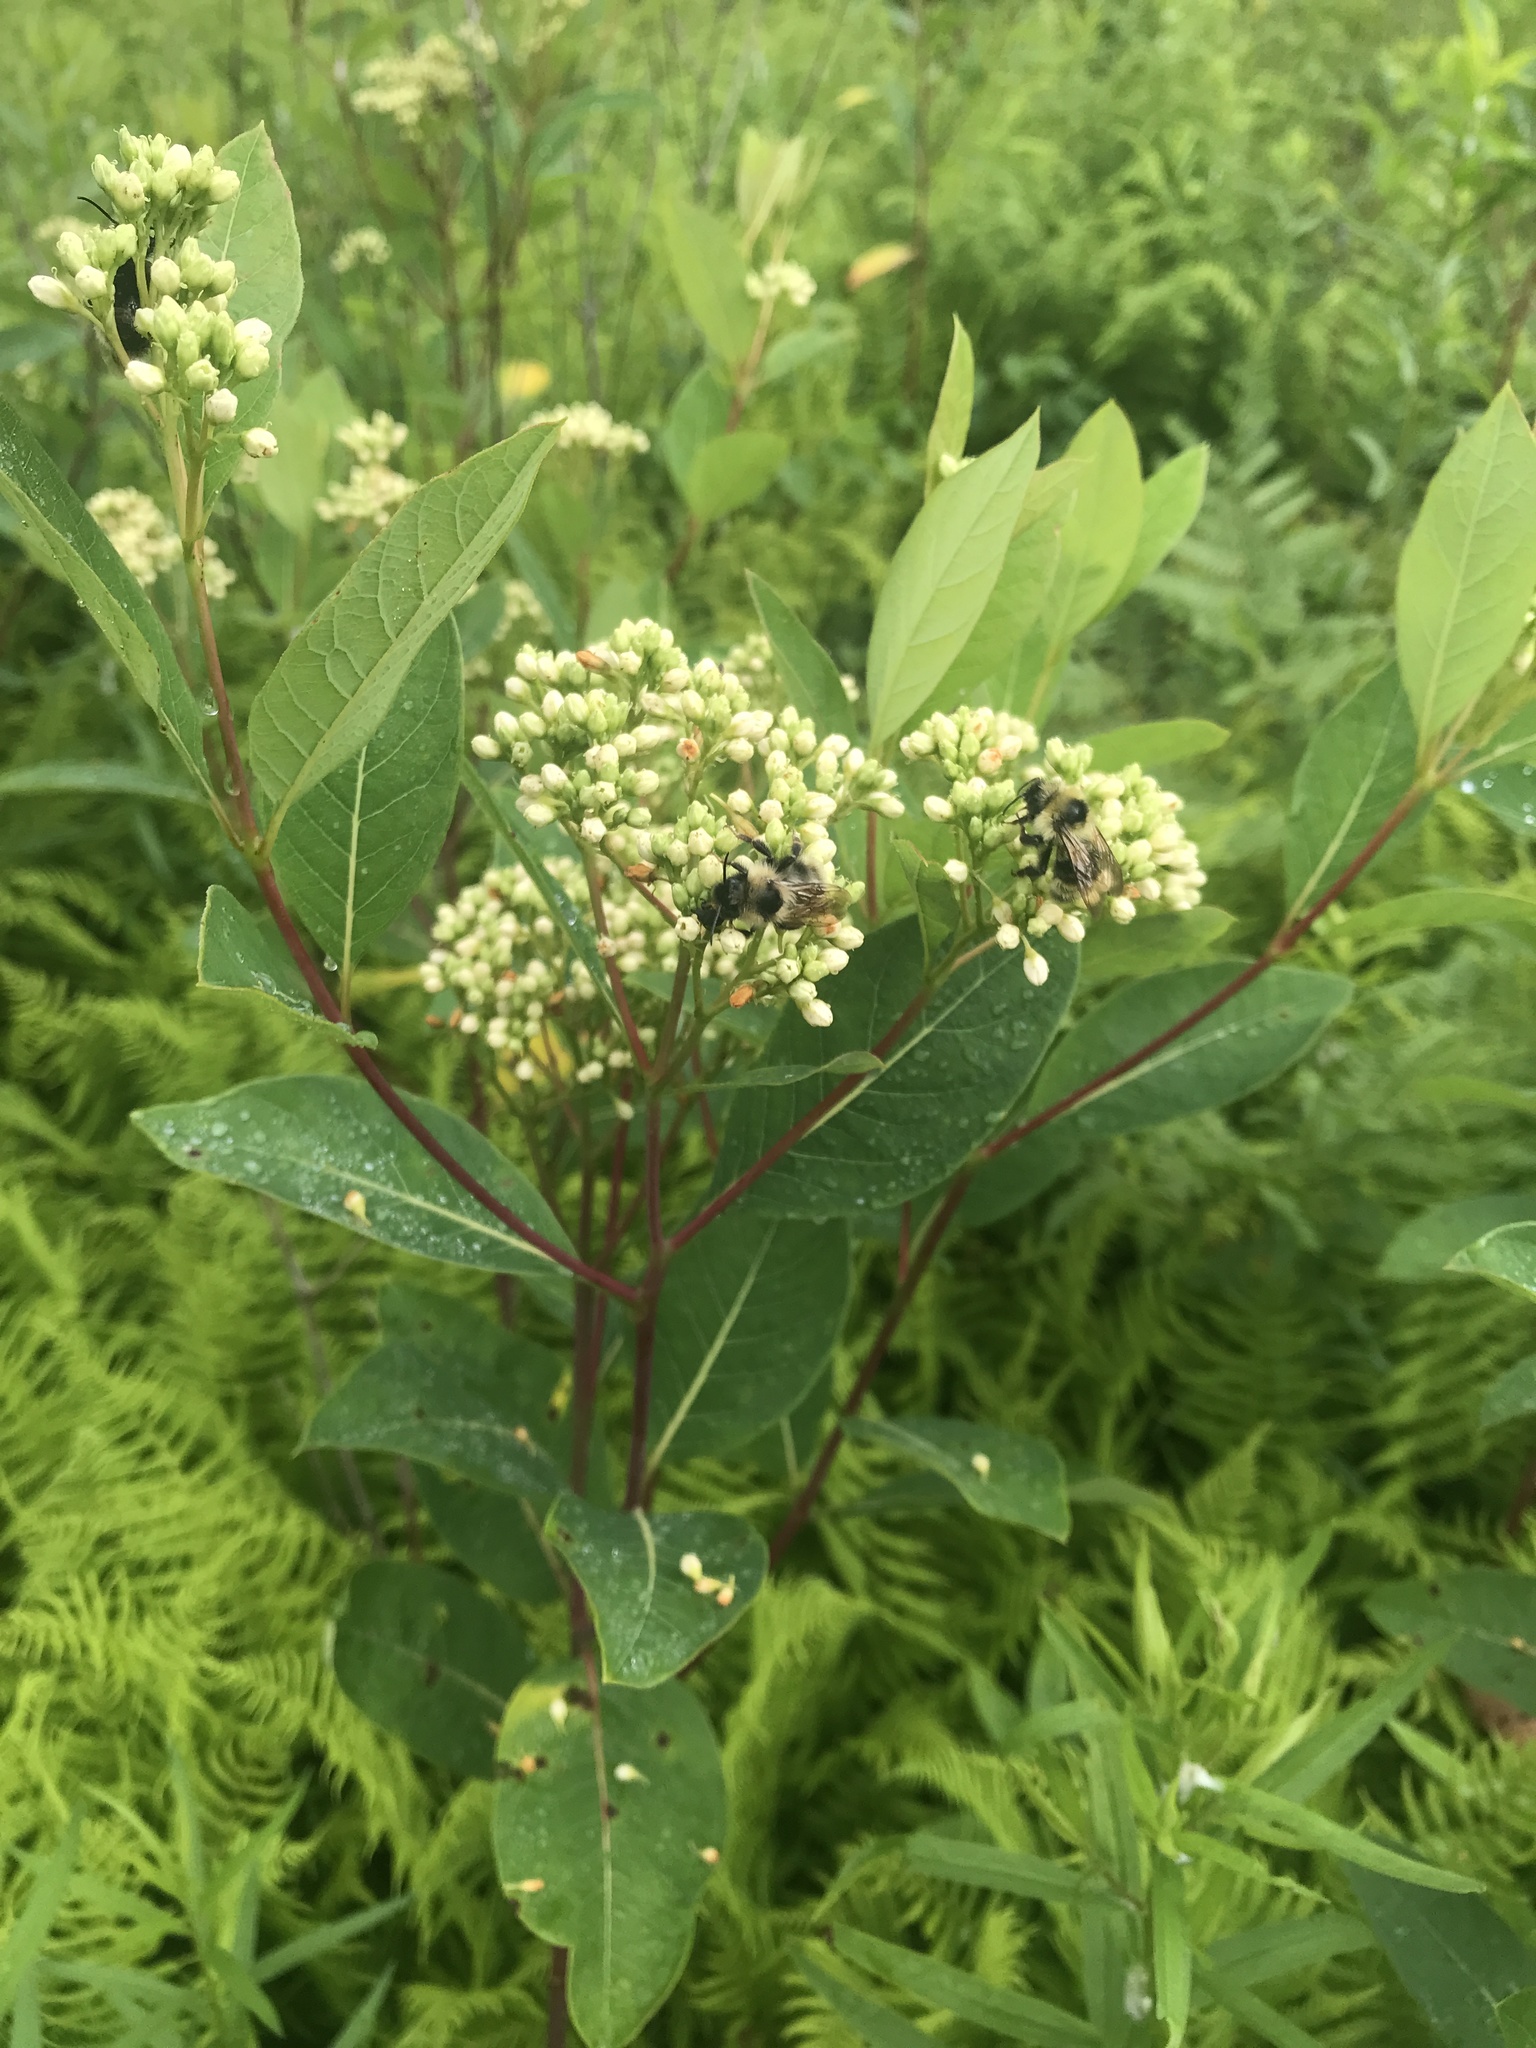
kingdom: Animalia
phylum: Arthropoda
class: Insecta
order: Hymenoptera
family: Apidae
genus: Bombus
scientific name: Bombus flavidus
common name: Fernald cuckoo bumble bee
